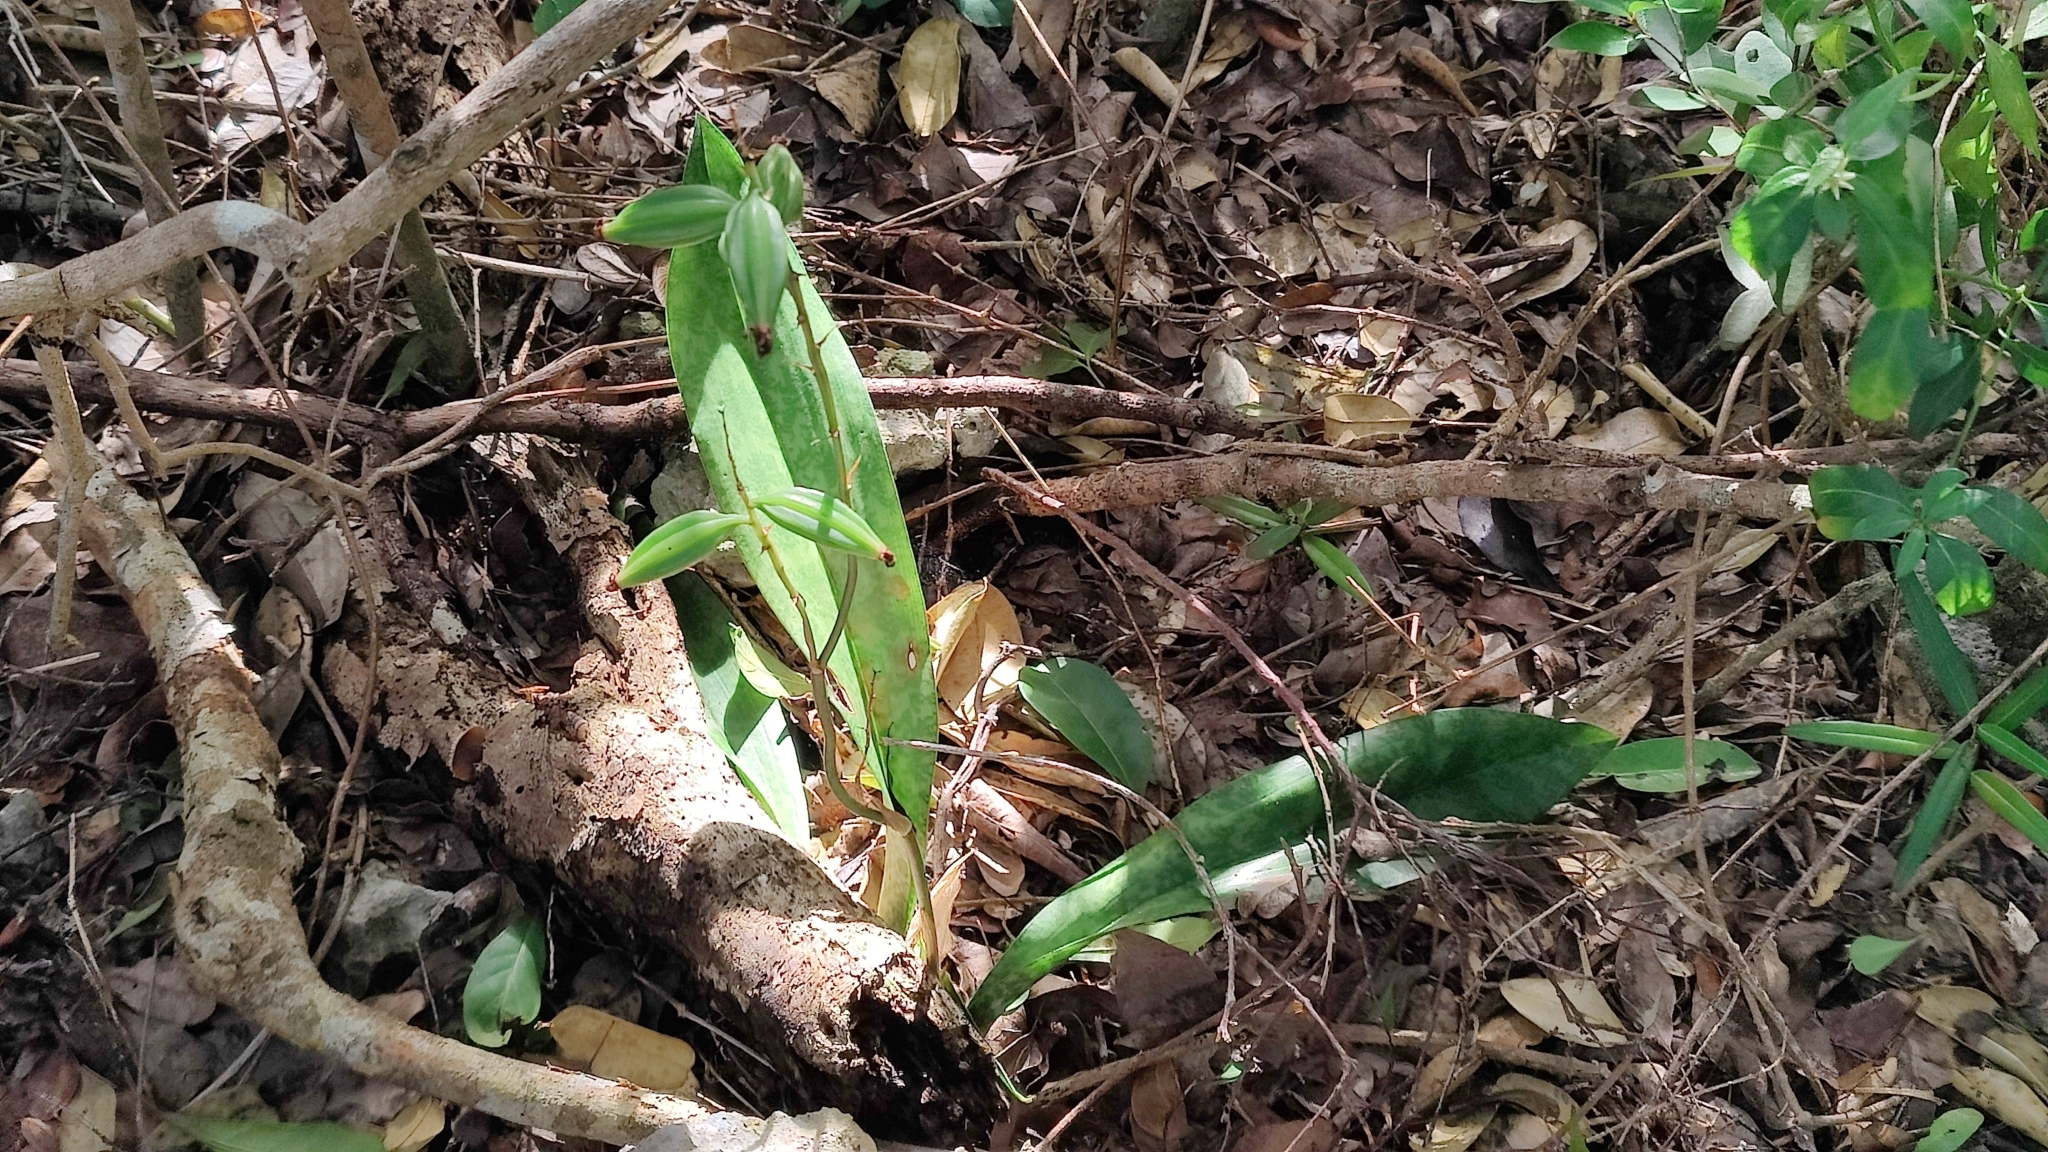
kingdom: Plantae
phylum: Tracheophyta
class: Liliopsida
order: Asparagales
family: Orchidaceae
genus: Eulophia
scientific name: Eulophia maculata
